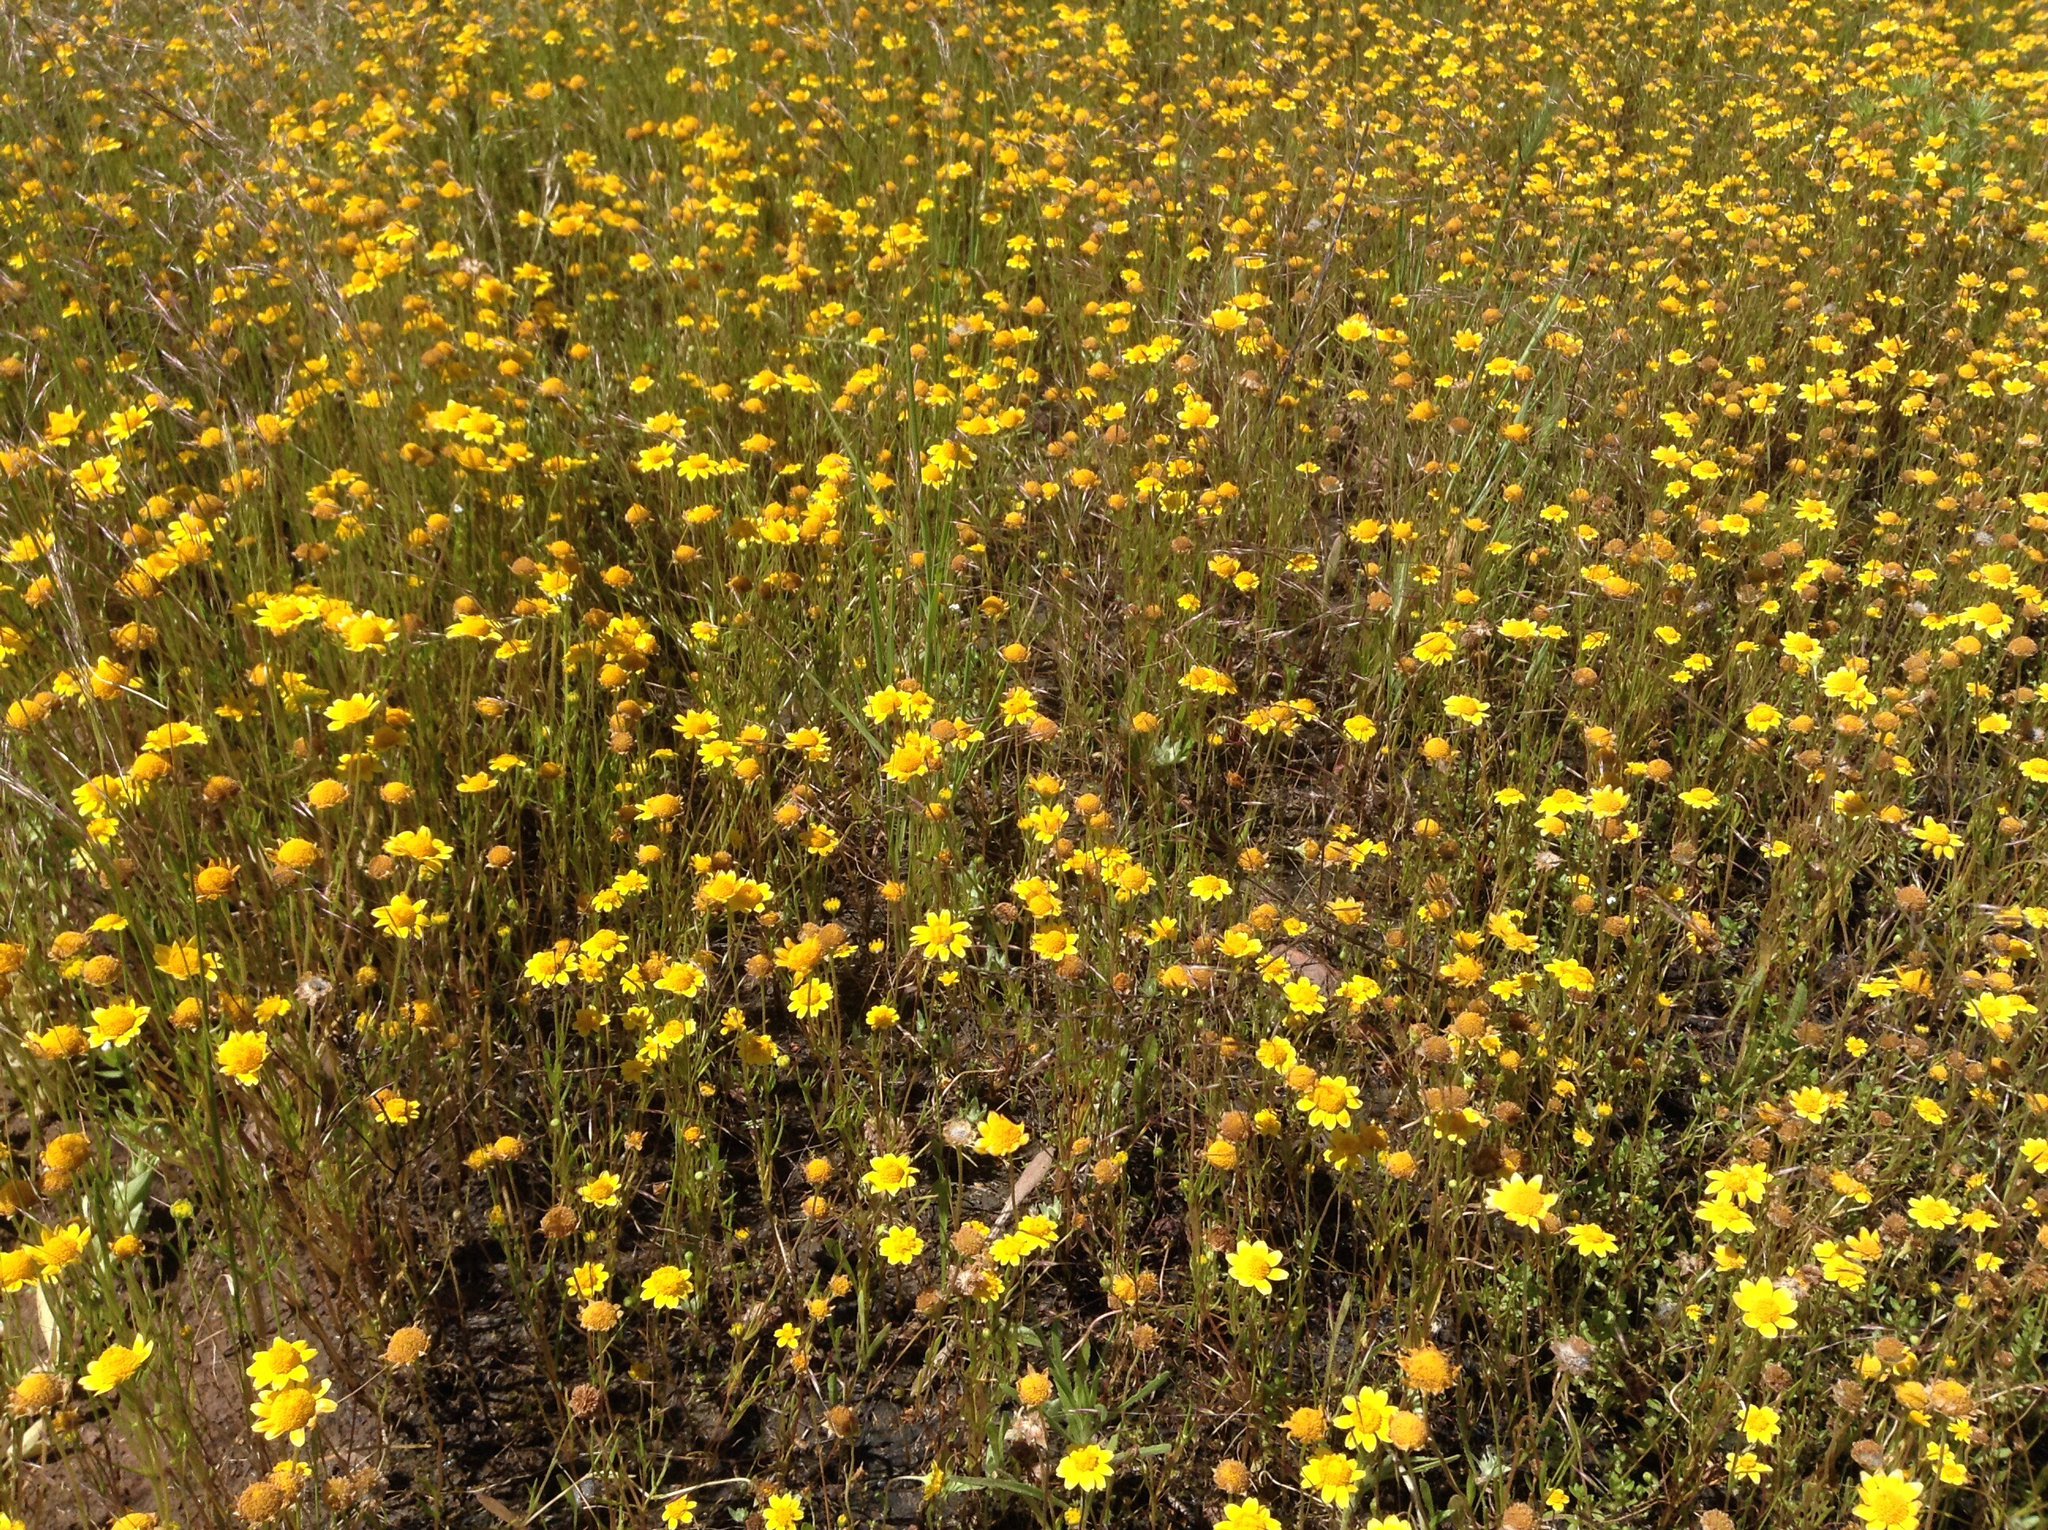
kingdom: Plantae
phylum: Tracheophyta
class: Magnoliopsida
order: Asterales
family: Asteraceae
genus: Lasthenia
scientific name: Lasthenia fremontii
